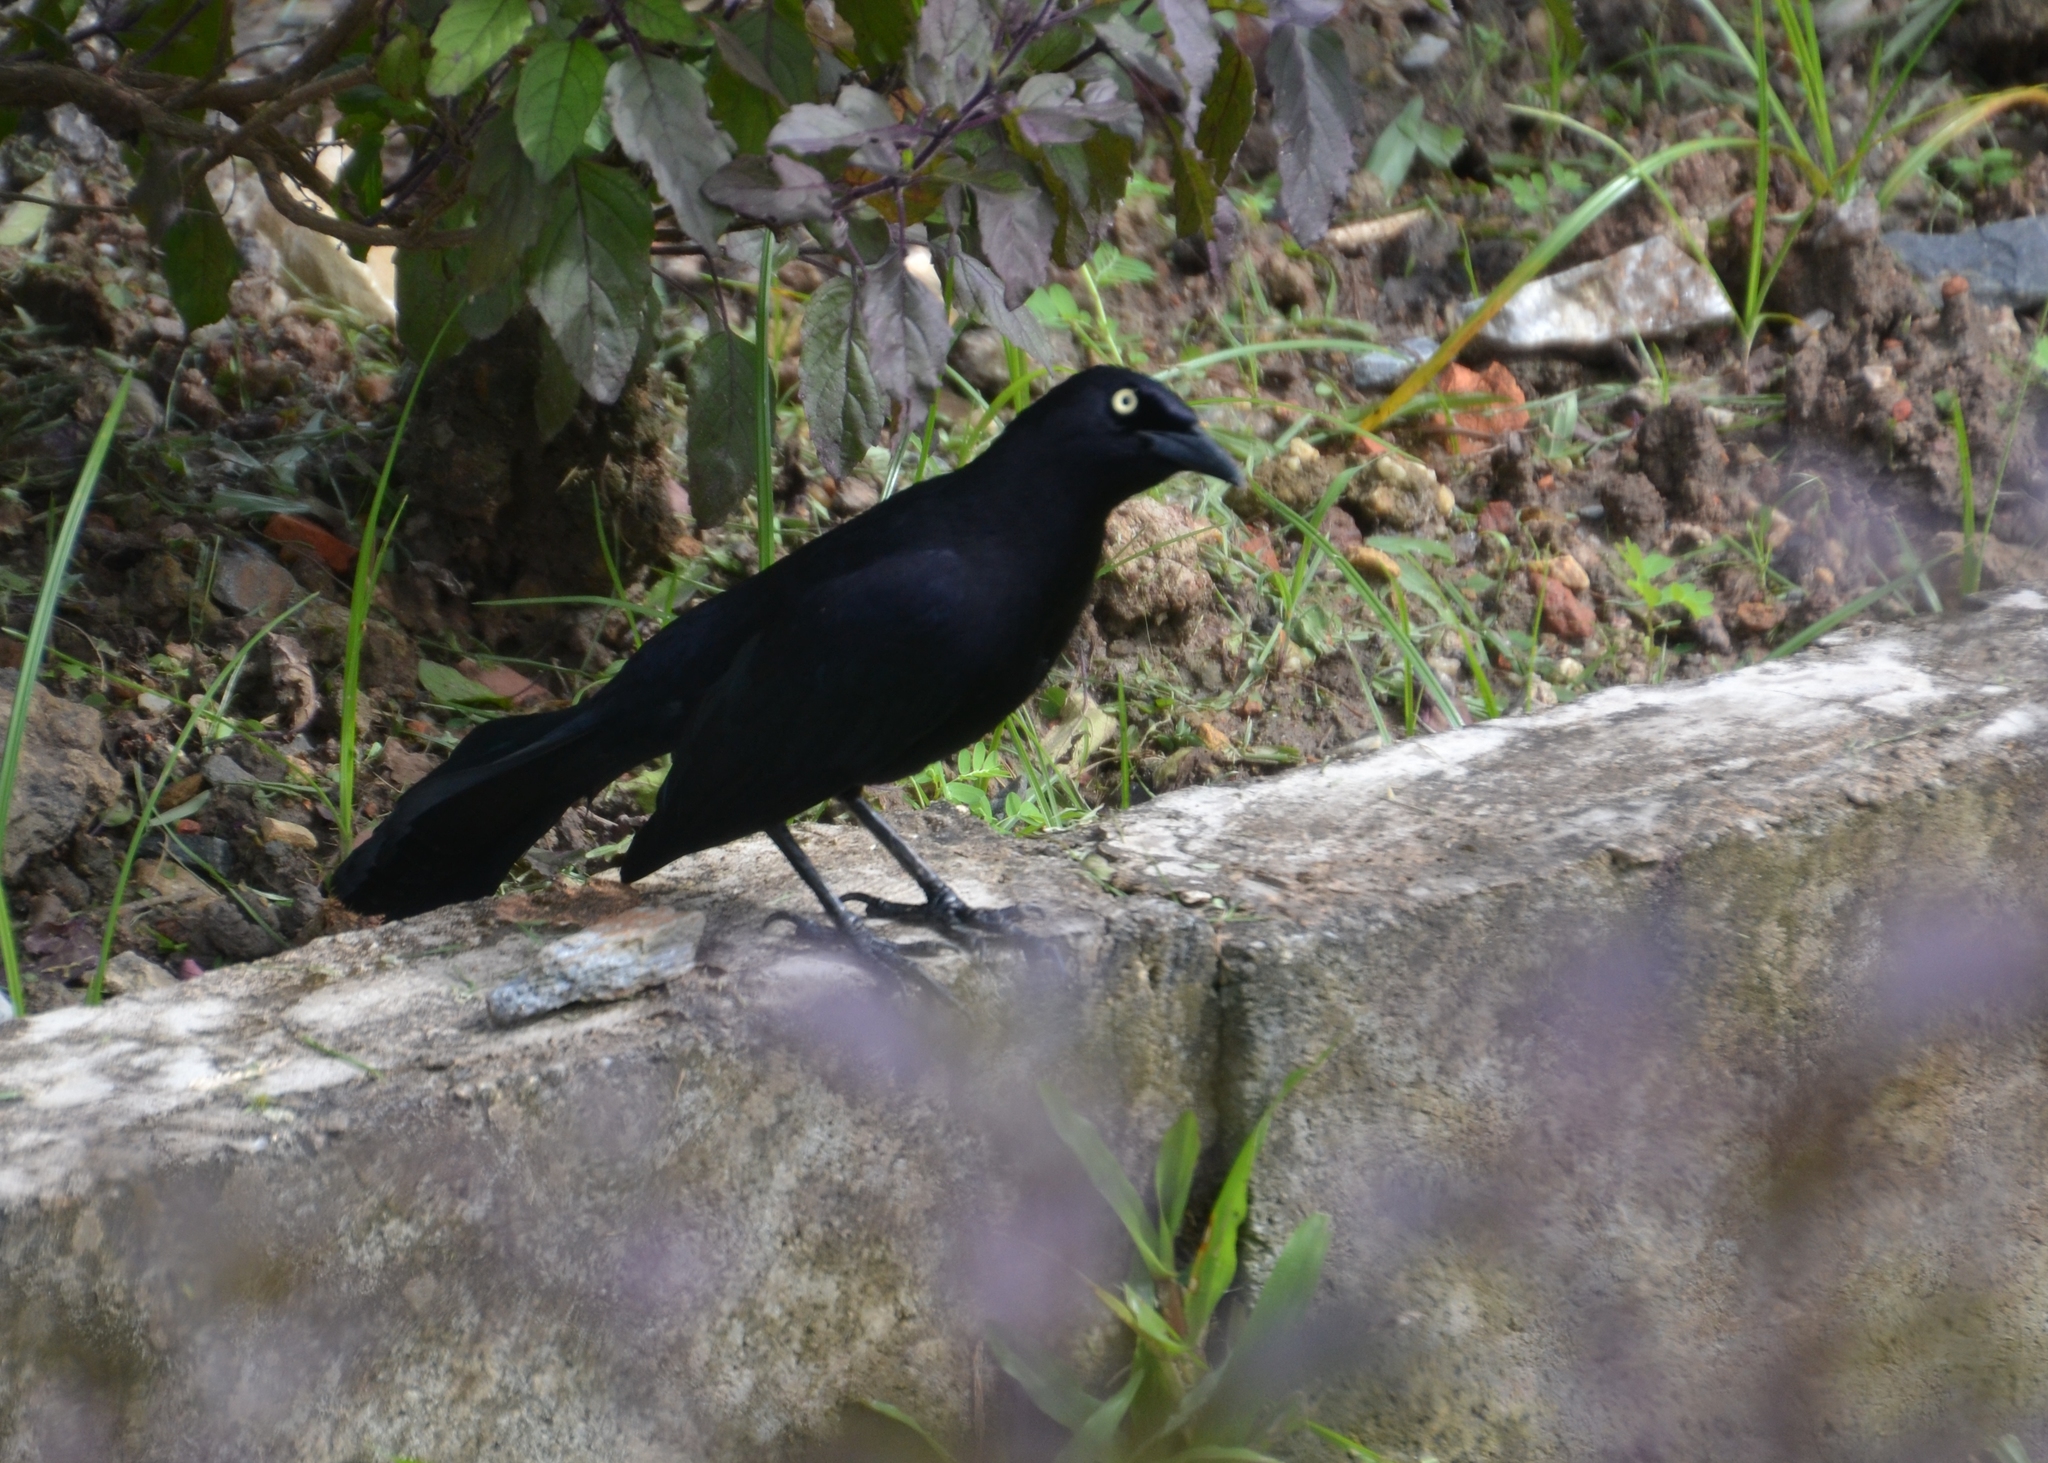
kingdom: Animalia
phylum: Chordata
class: Aves
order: Passeriformes
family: Icteridae
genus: Quiscalus
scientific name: Quiscalus lugubris
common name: Carib grackle
